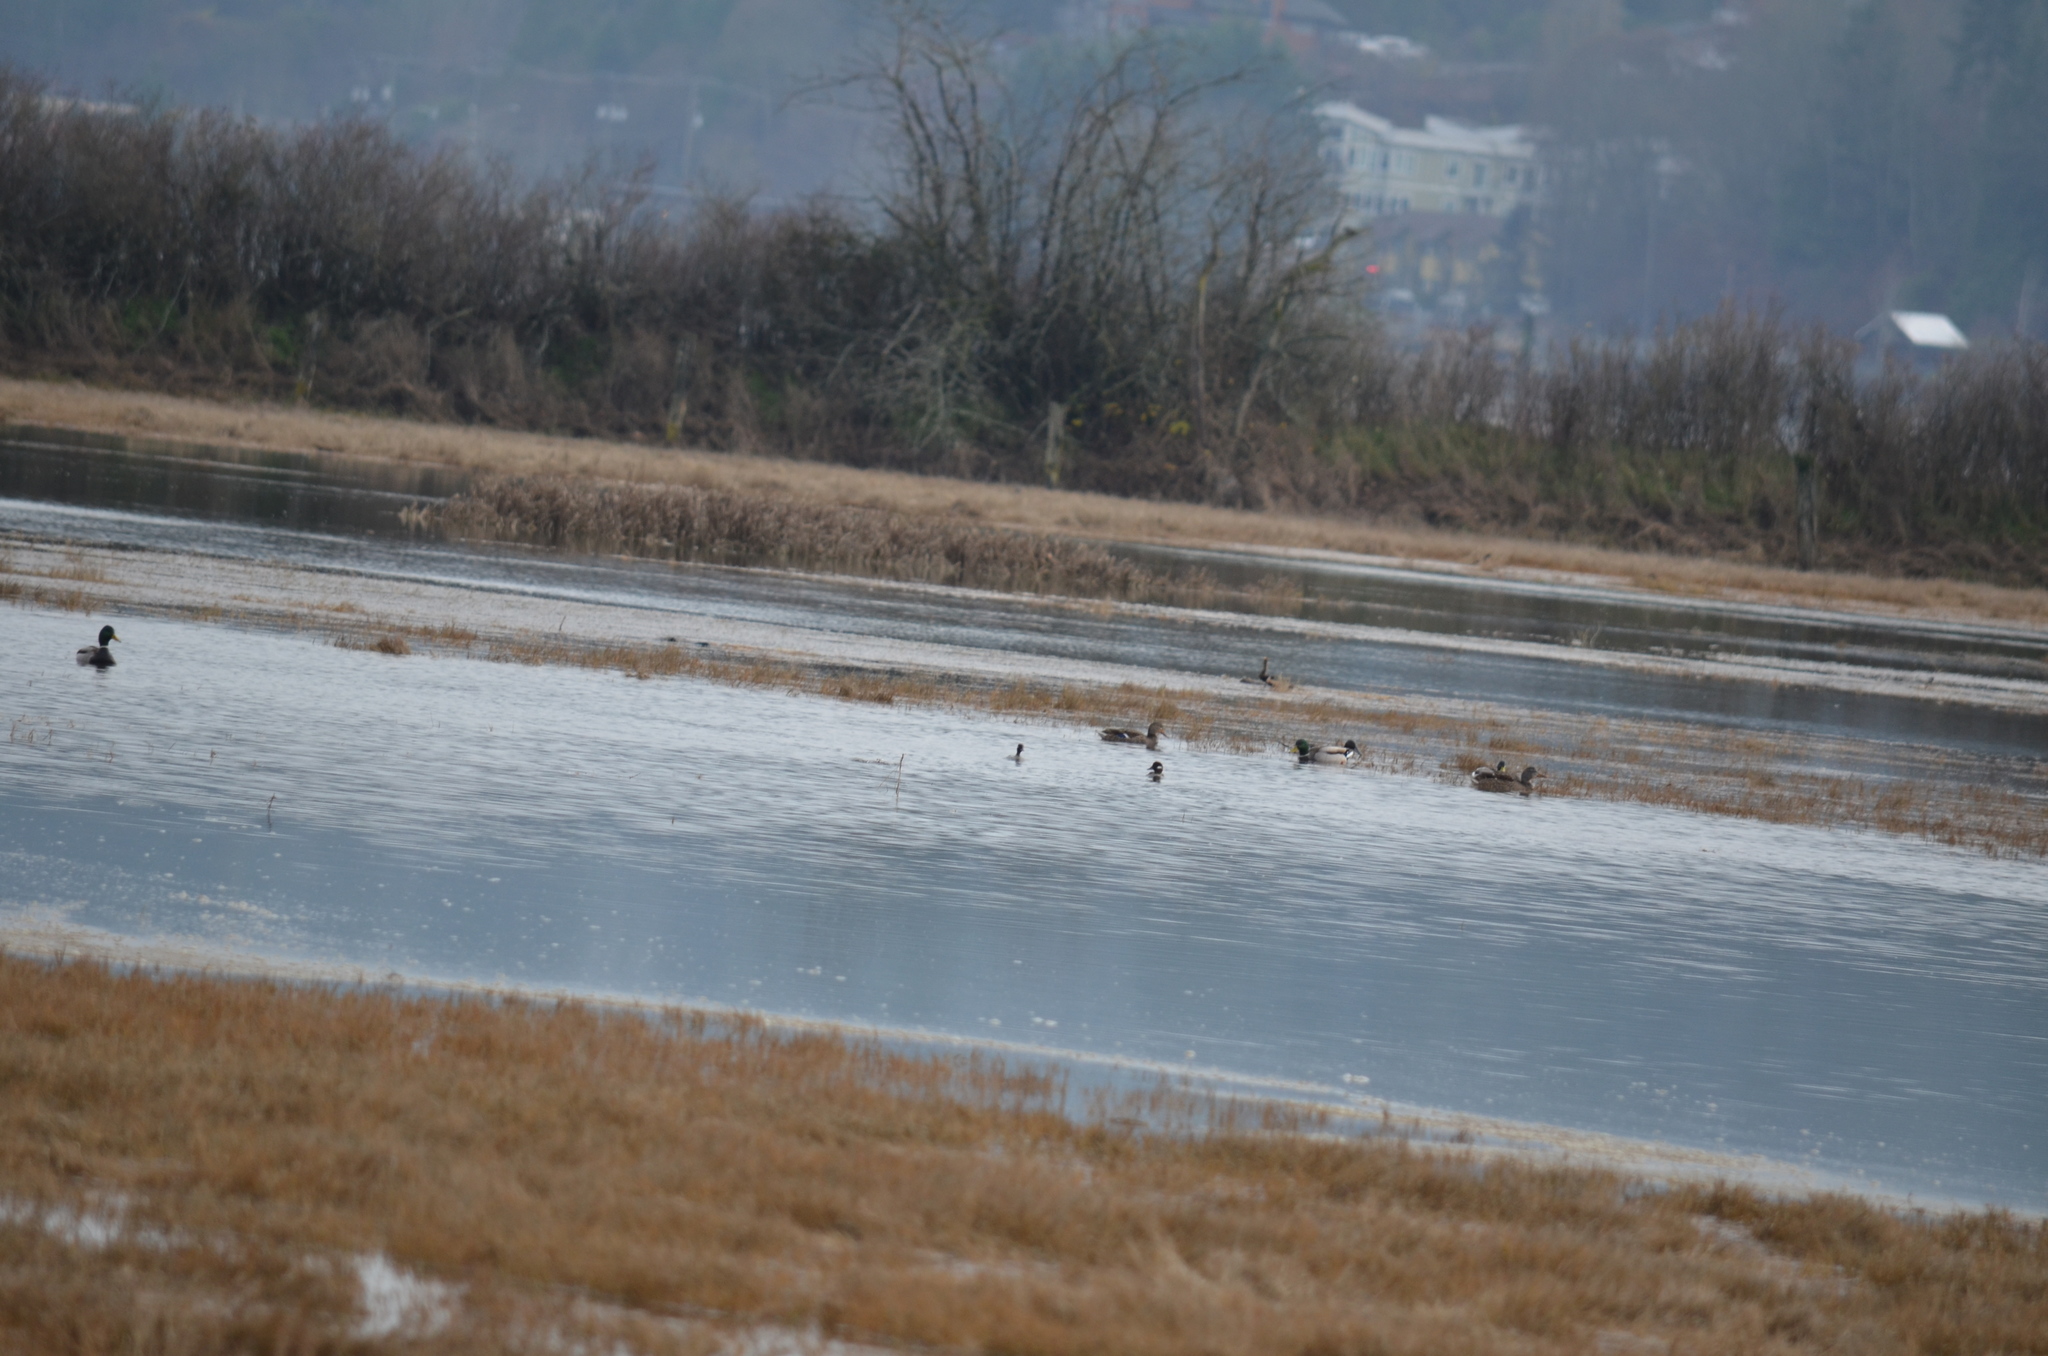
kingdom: Animalia
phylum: Chordata
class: Aves
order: Anseriformes
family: Anatidae
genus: Bucephala
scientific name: Bucephala albeola
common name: Bufflehead
